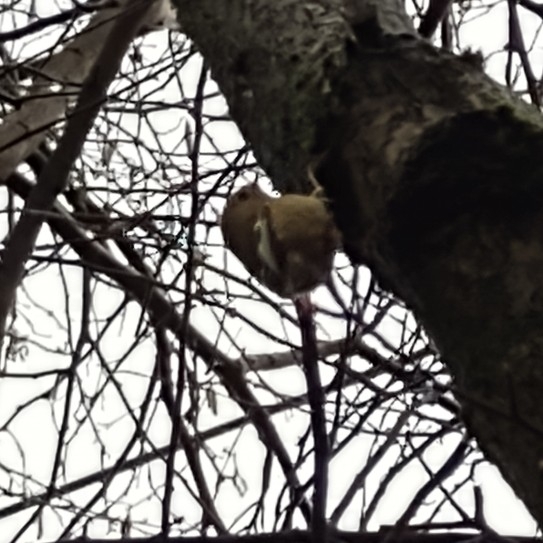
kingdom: Animalia
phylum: Chordata
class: Aves
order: Passeriformes
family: Regulidae
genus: Regulus
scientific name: Regulus regulus
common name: Goldcrest
